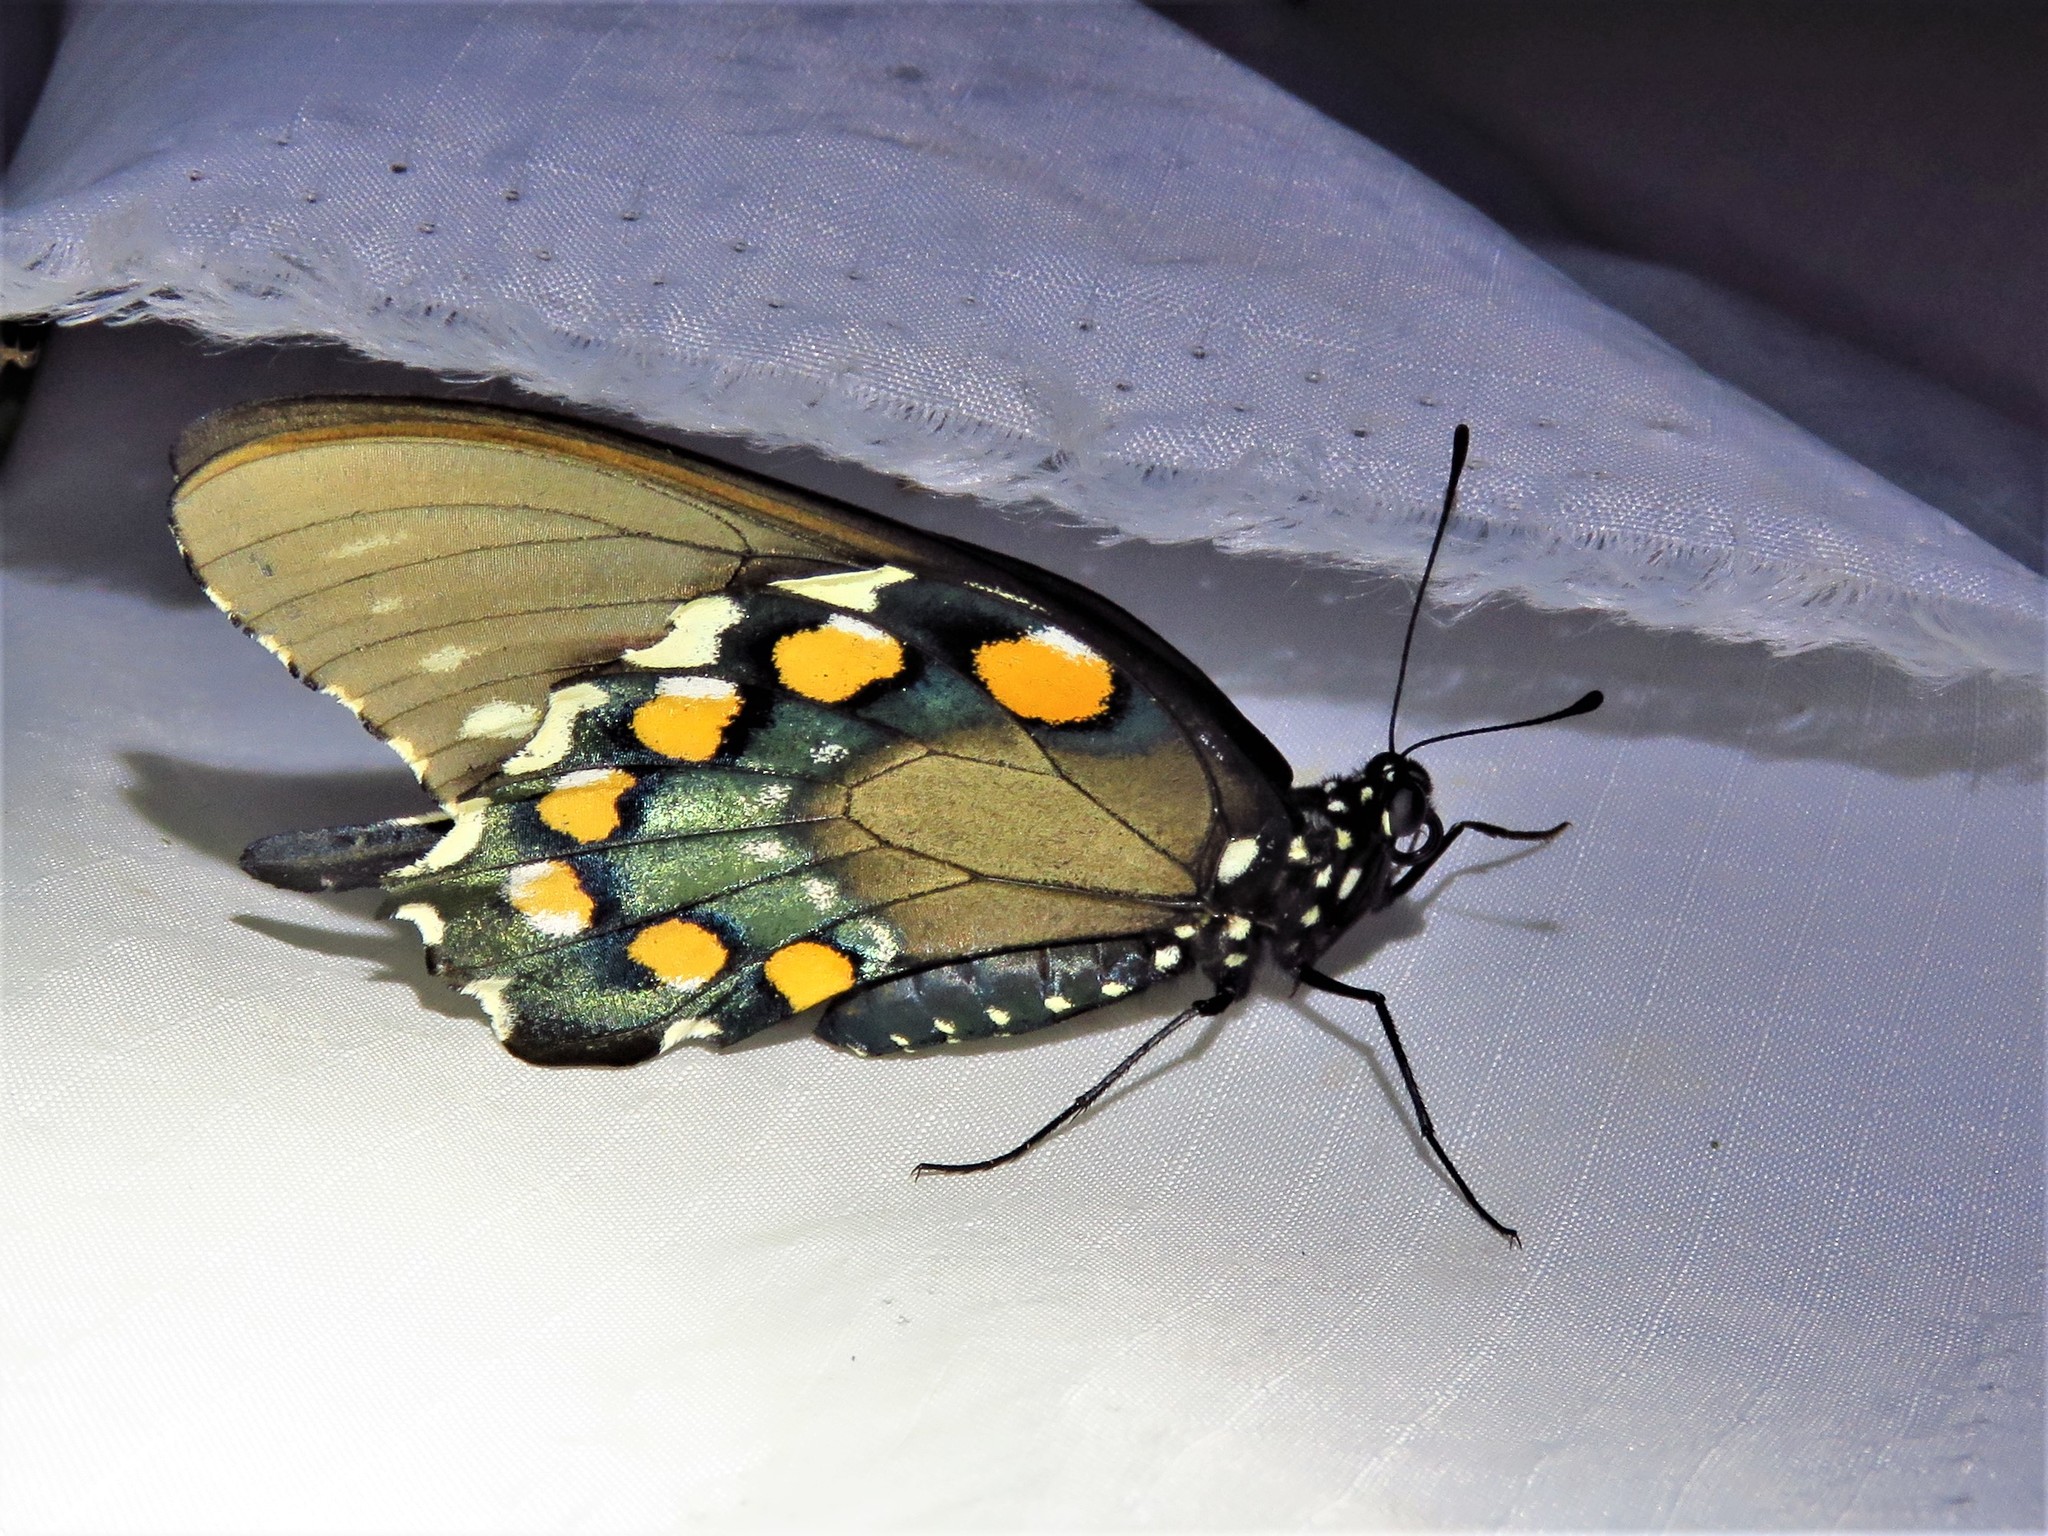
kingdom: Animalia
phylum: Arthropoda
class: Insecta
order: Lepidoptera
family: Papilionidae
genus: Battus
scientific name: Battus philenor
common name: Pipevine swallowtail
